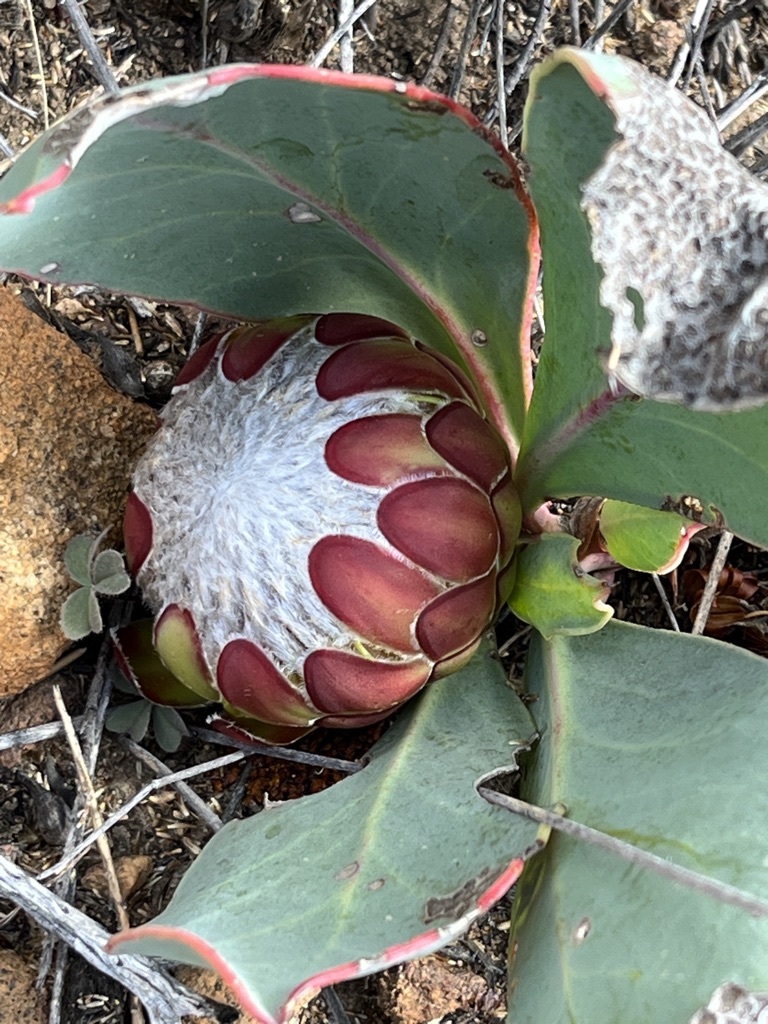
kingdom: Plantae
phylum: Tracheophyta
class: Magnoliopsida
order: Proteales
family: Proteaceae
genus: Protea
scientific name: Protea acaulos
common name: Common ground sugarbush
